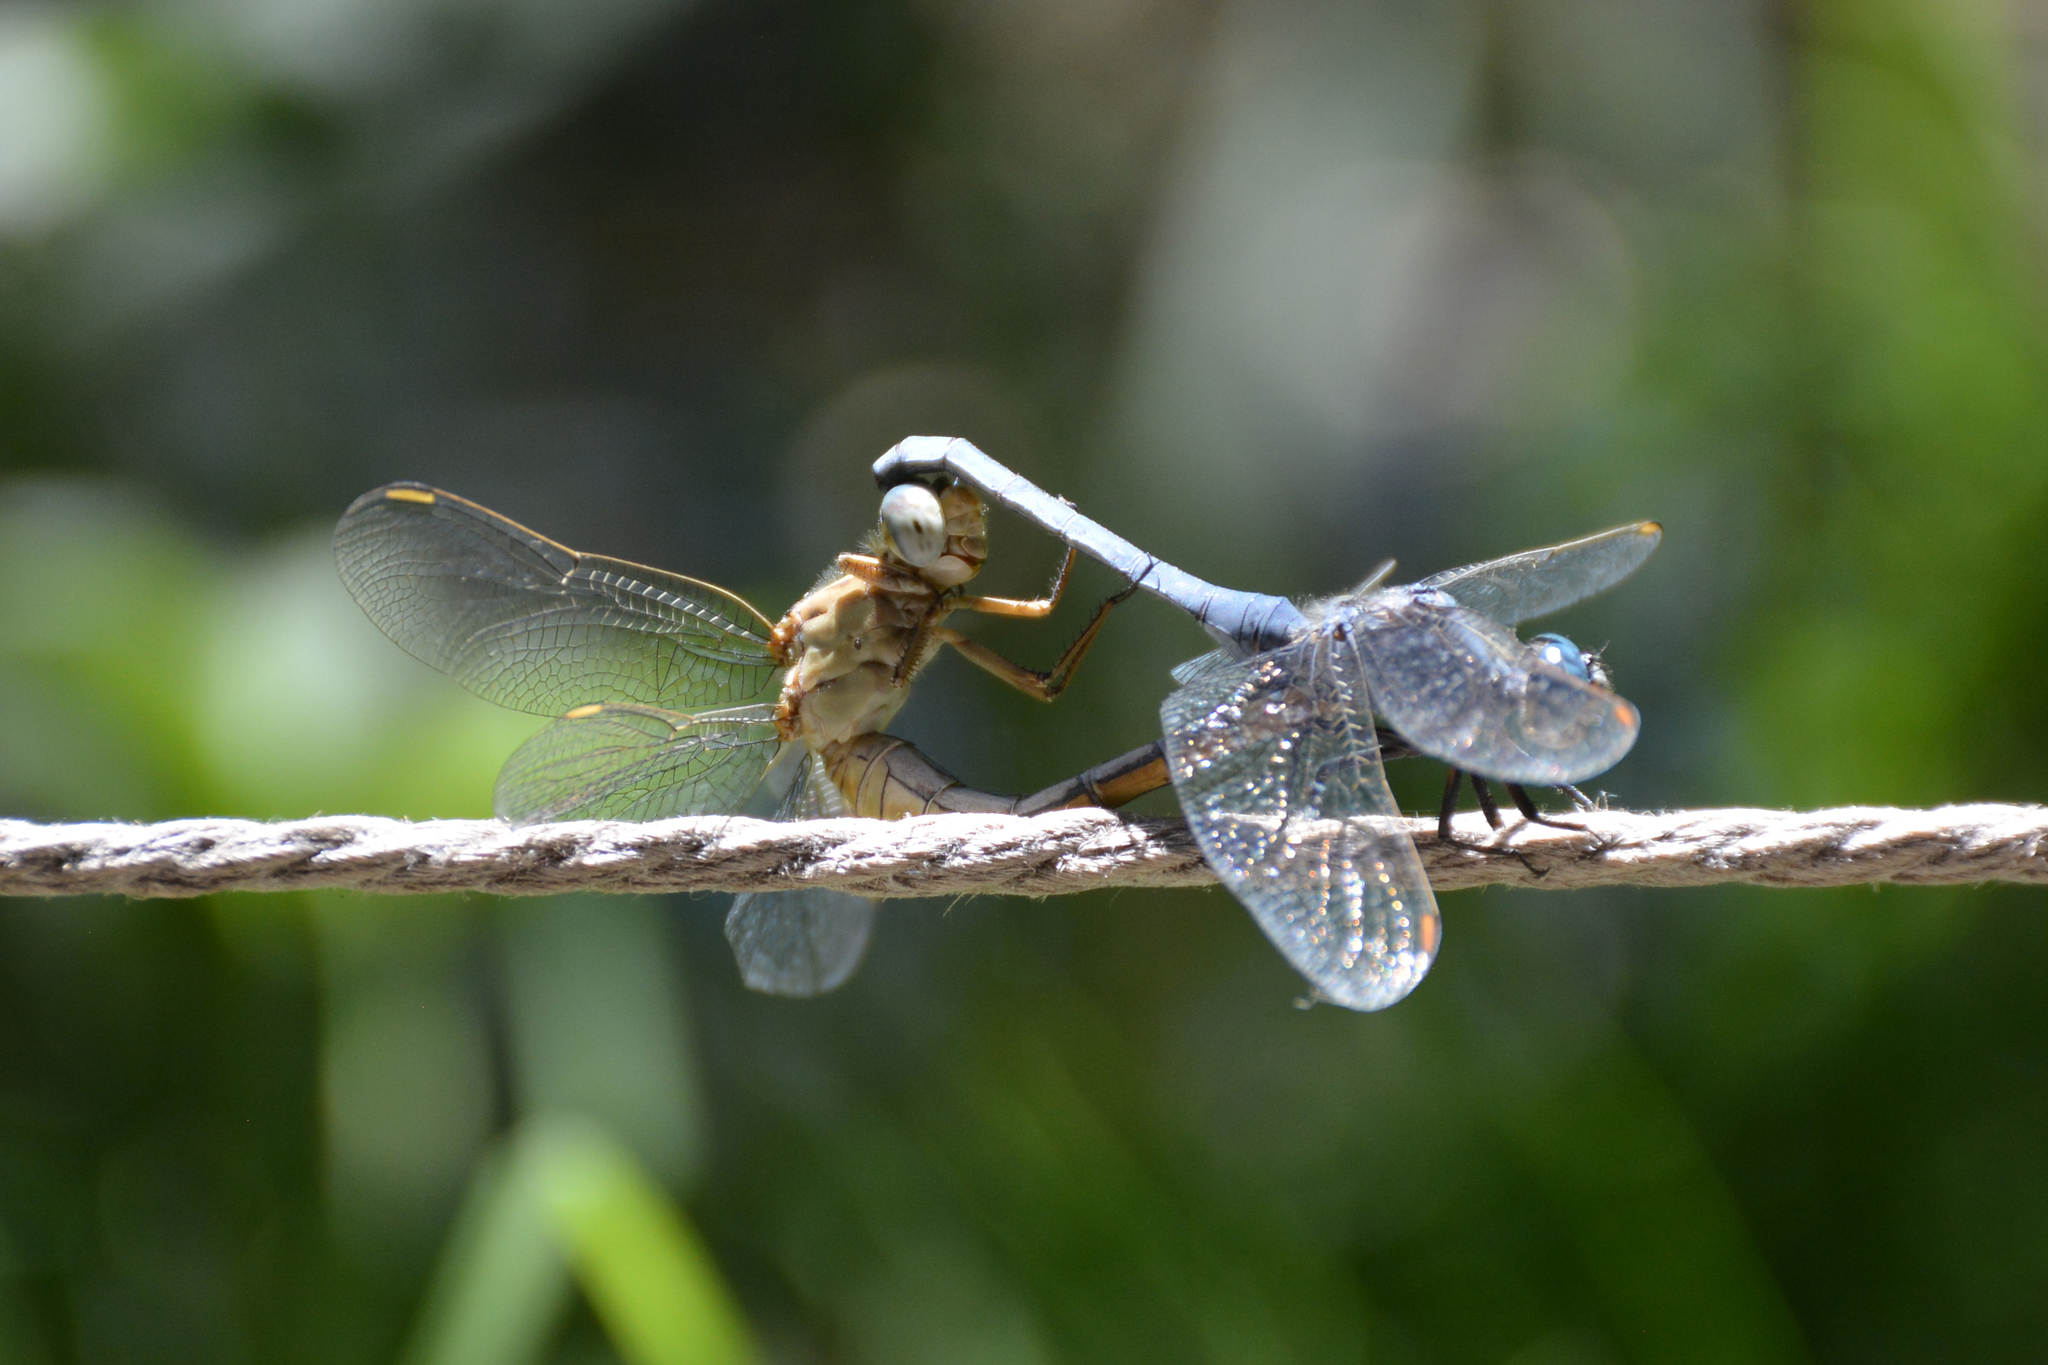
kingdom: Animalia
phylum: Arthropoda
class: Insecta
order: Odonata
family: Libellulidae
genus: Orthetrum
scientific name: Orthetrum coerulescens
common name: Keeled skimmer
